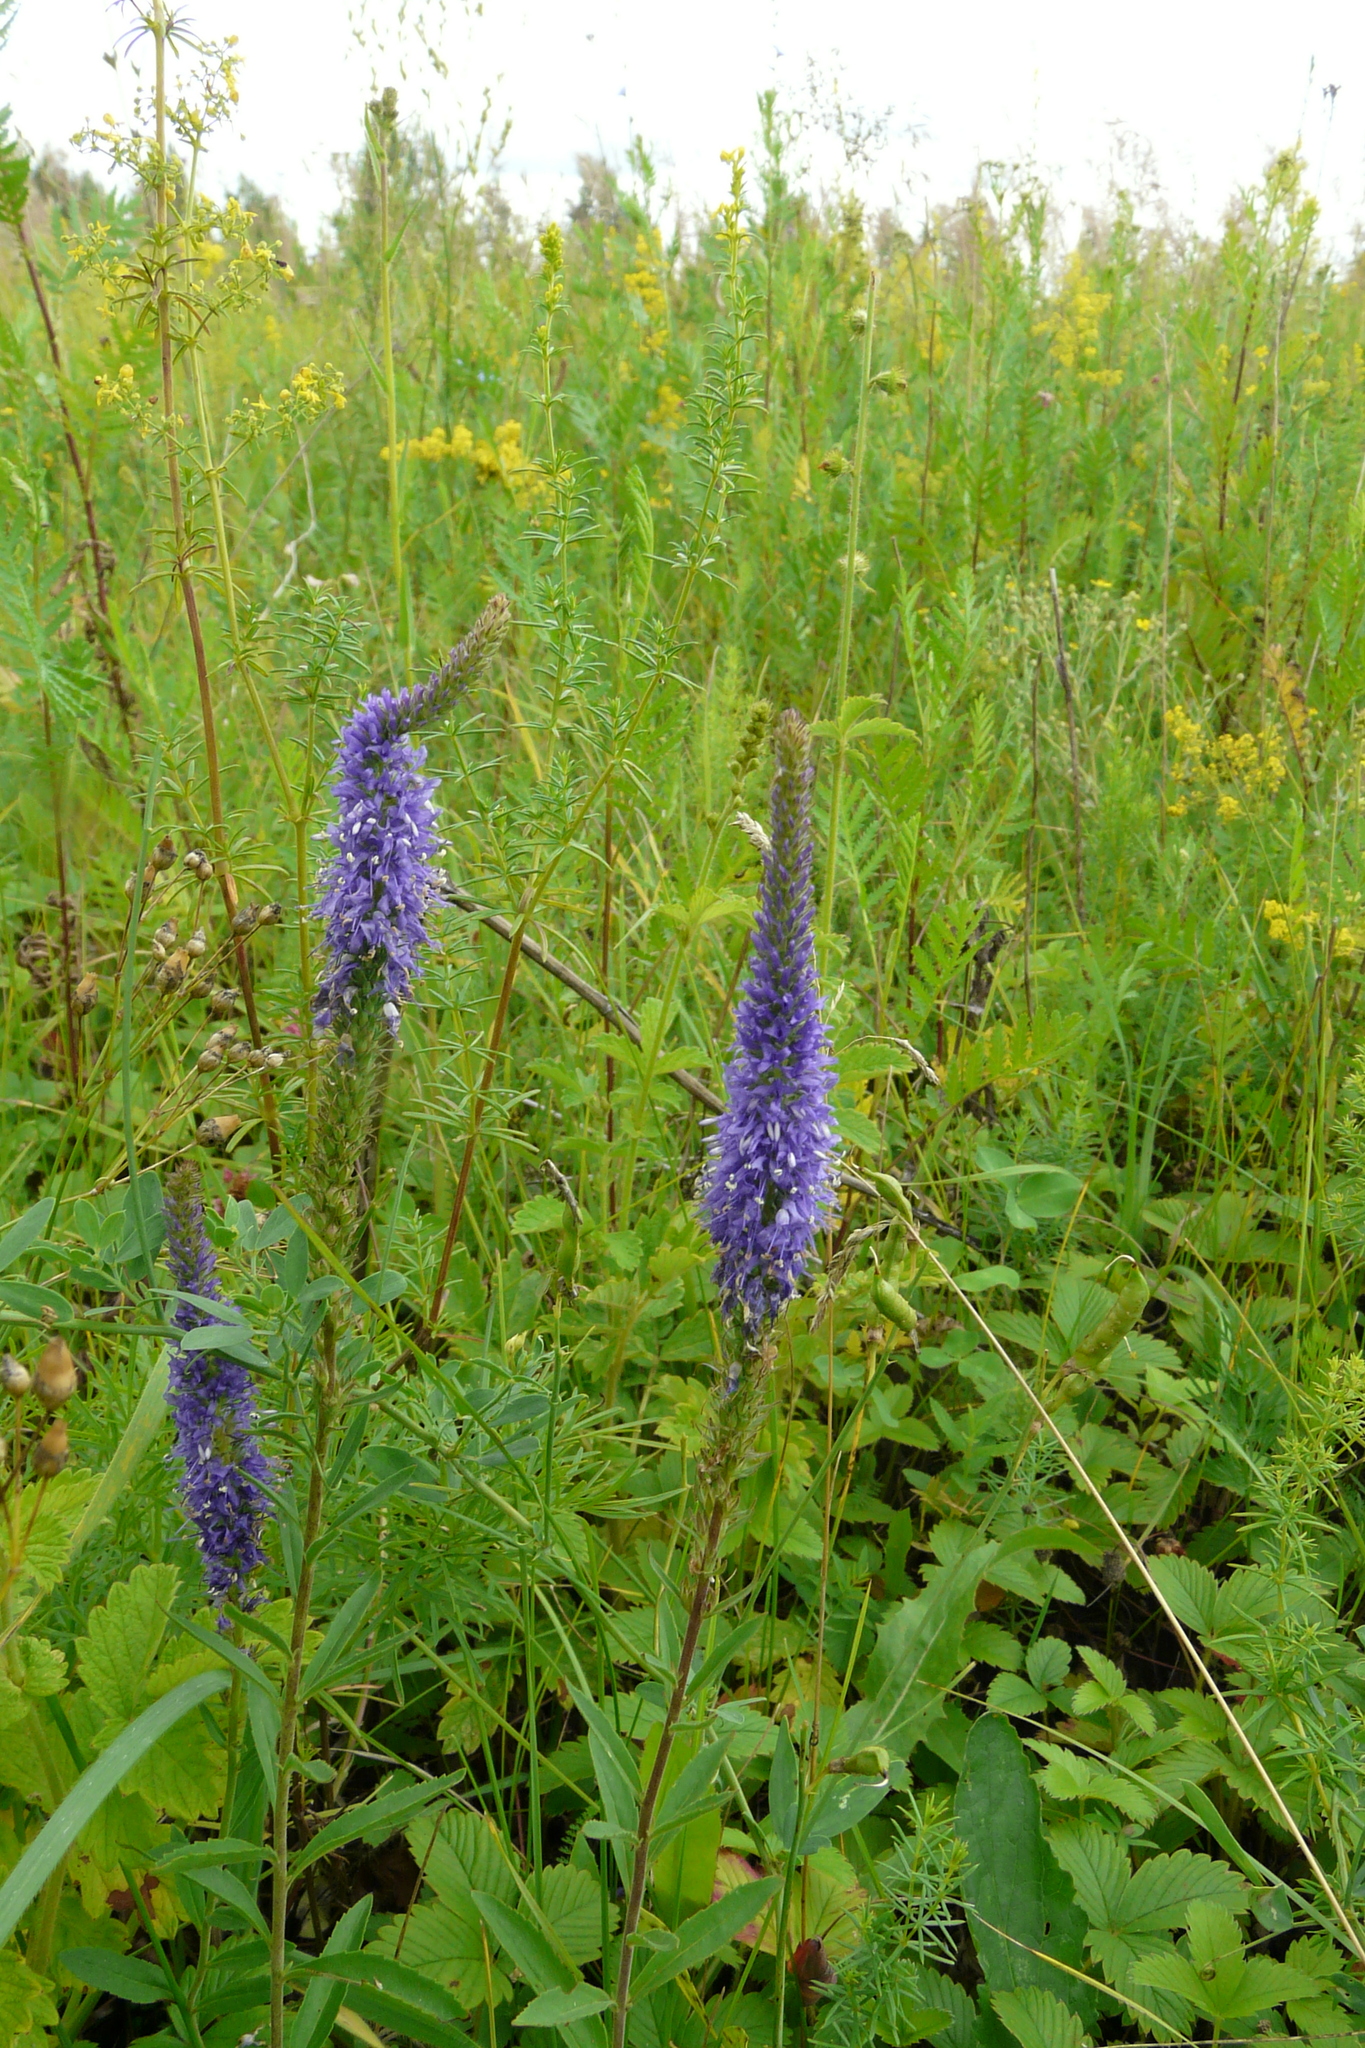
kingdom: Plantae
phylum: Tracheophyta
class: Magnoliopsida
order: Lamiales
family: Plantaginaceae
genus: Veronica
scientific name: Veronica spicata
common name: Spiked speedwell
